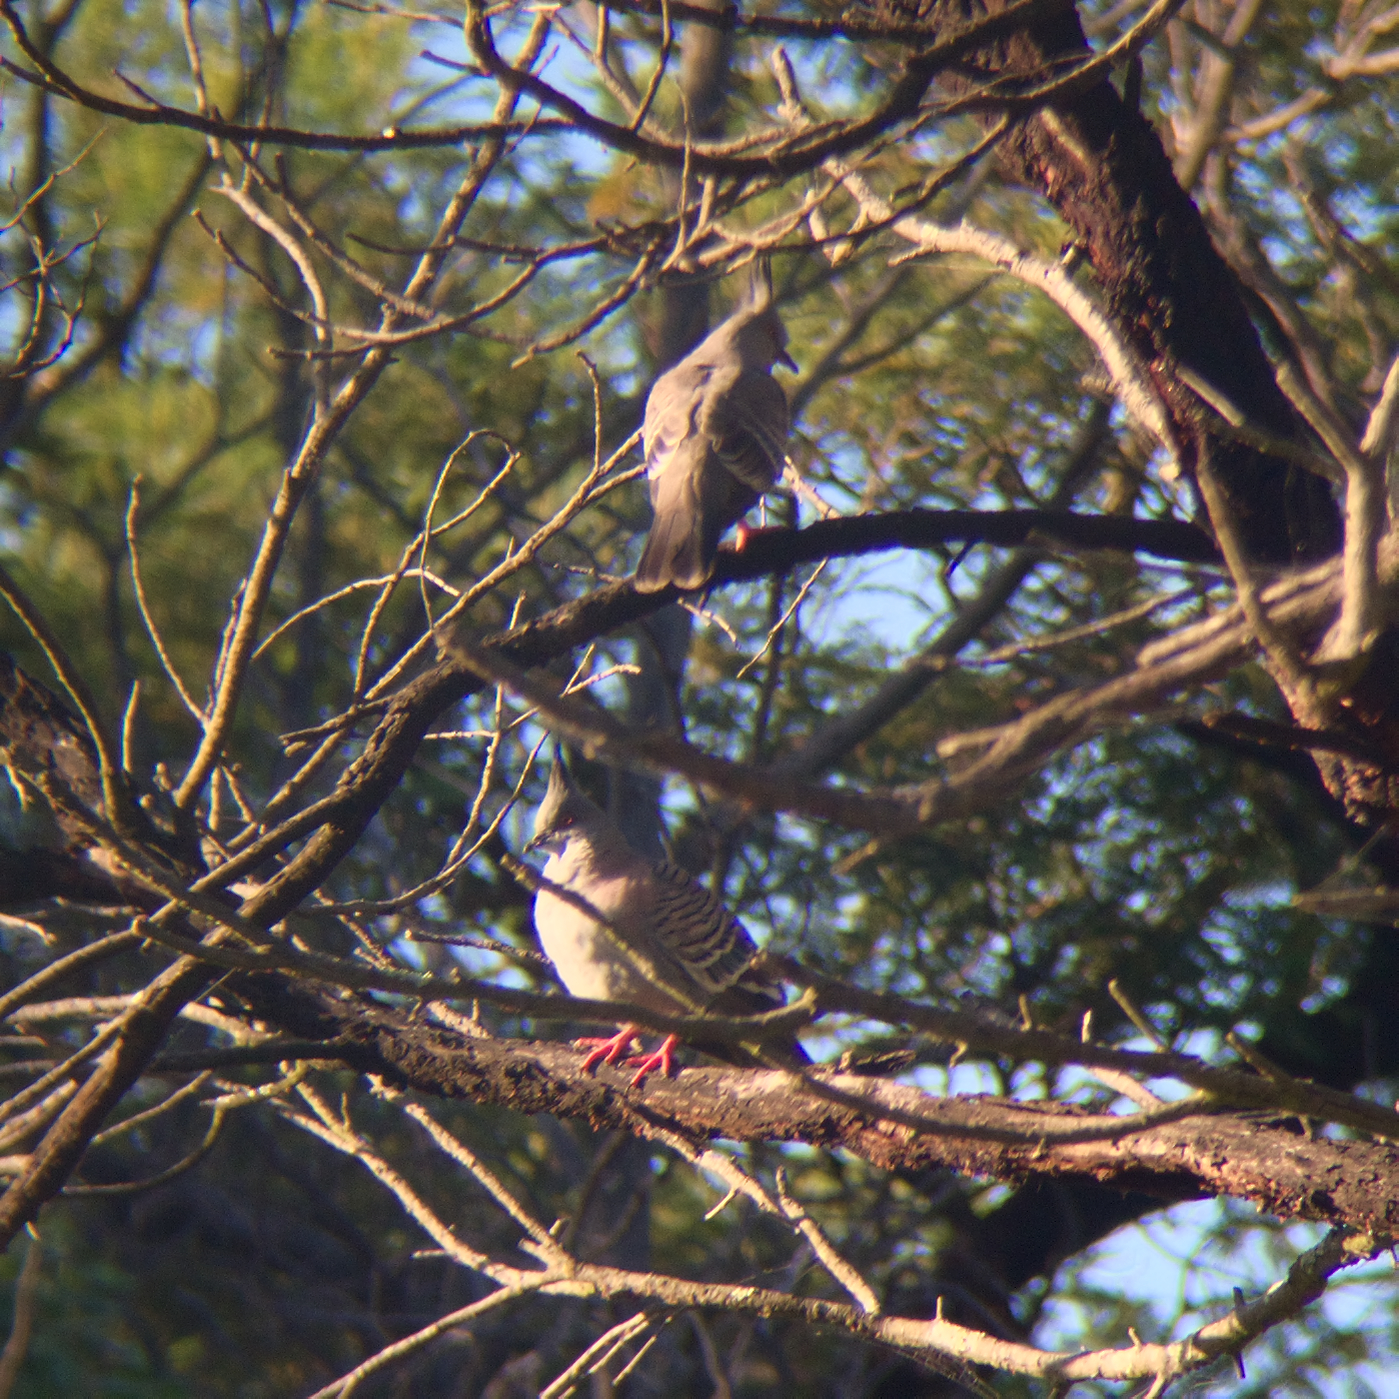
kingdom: Animalia
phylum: Chordata
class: Aves
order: Columbiformes
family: Columbidae
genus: Ocyphaps
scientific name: Ocyphaps lophotes
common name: Crested pigeon
